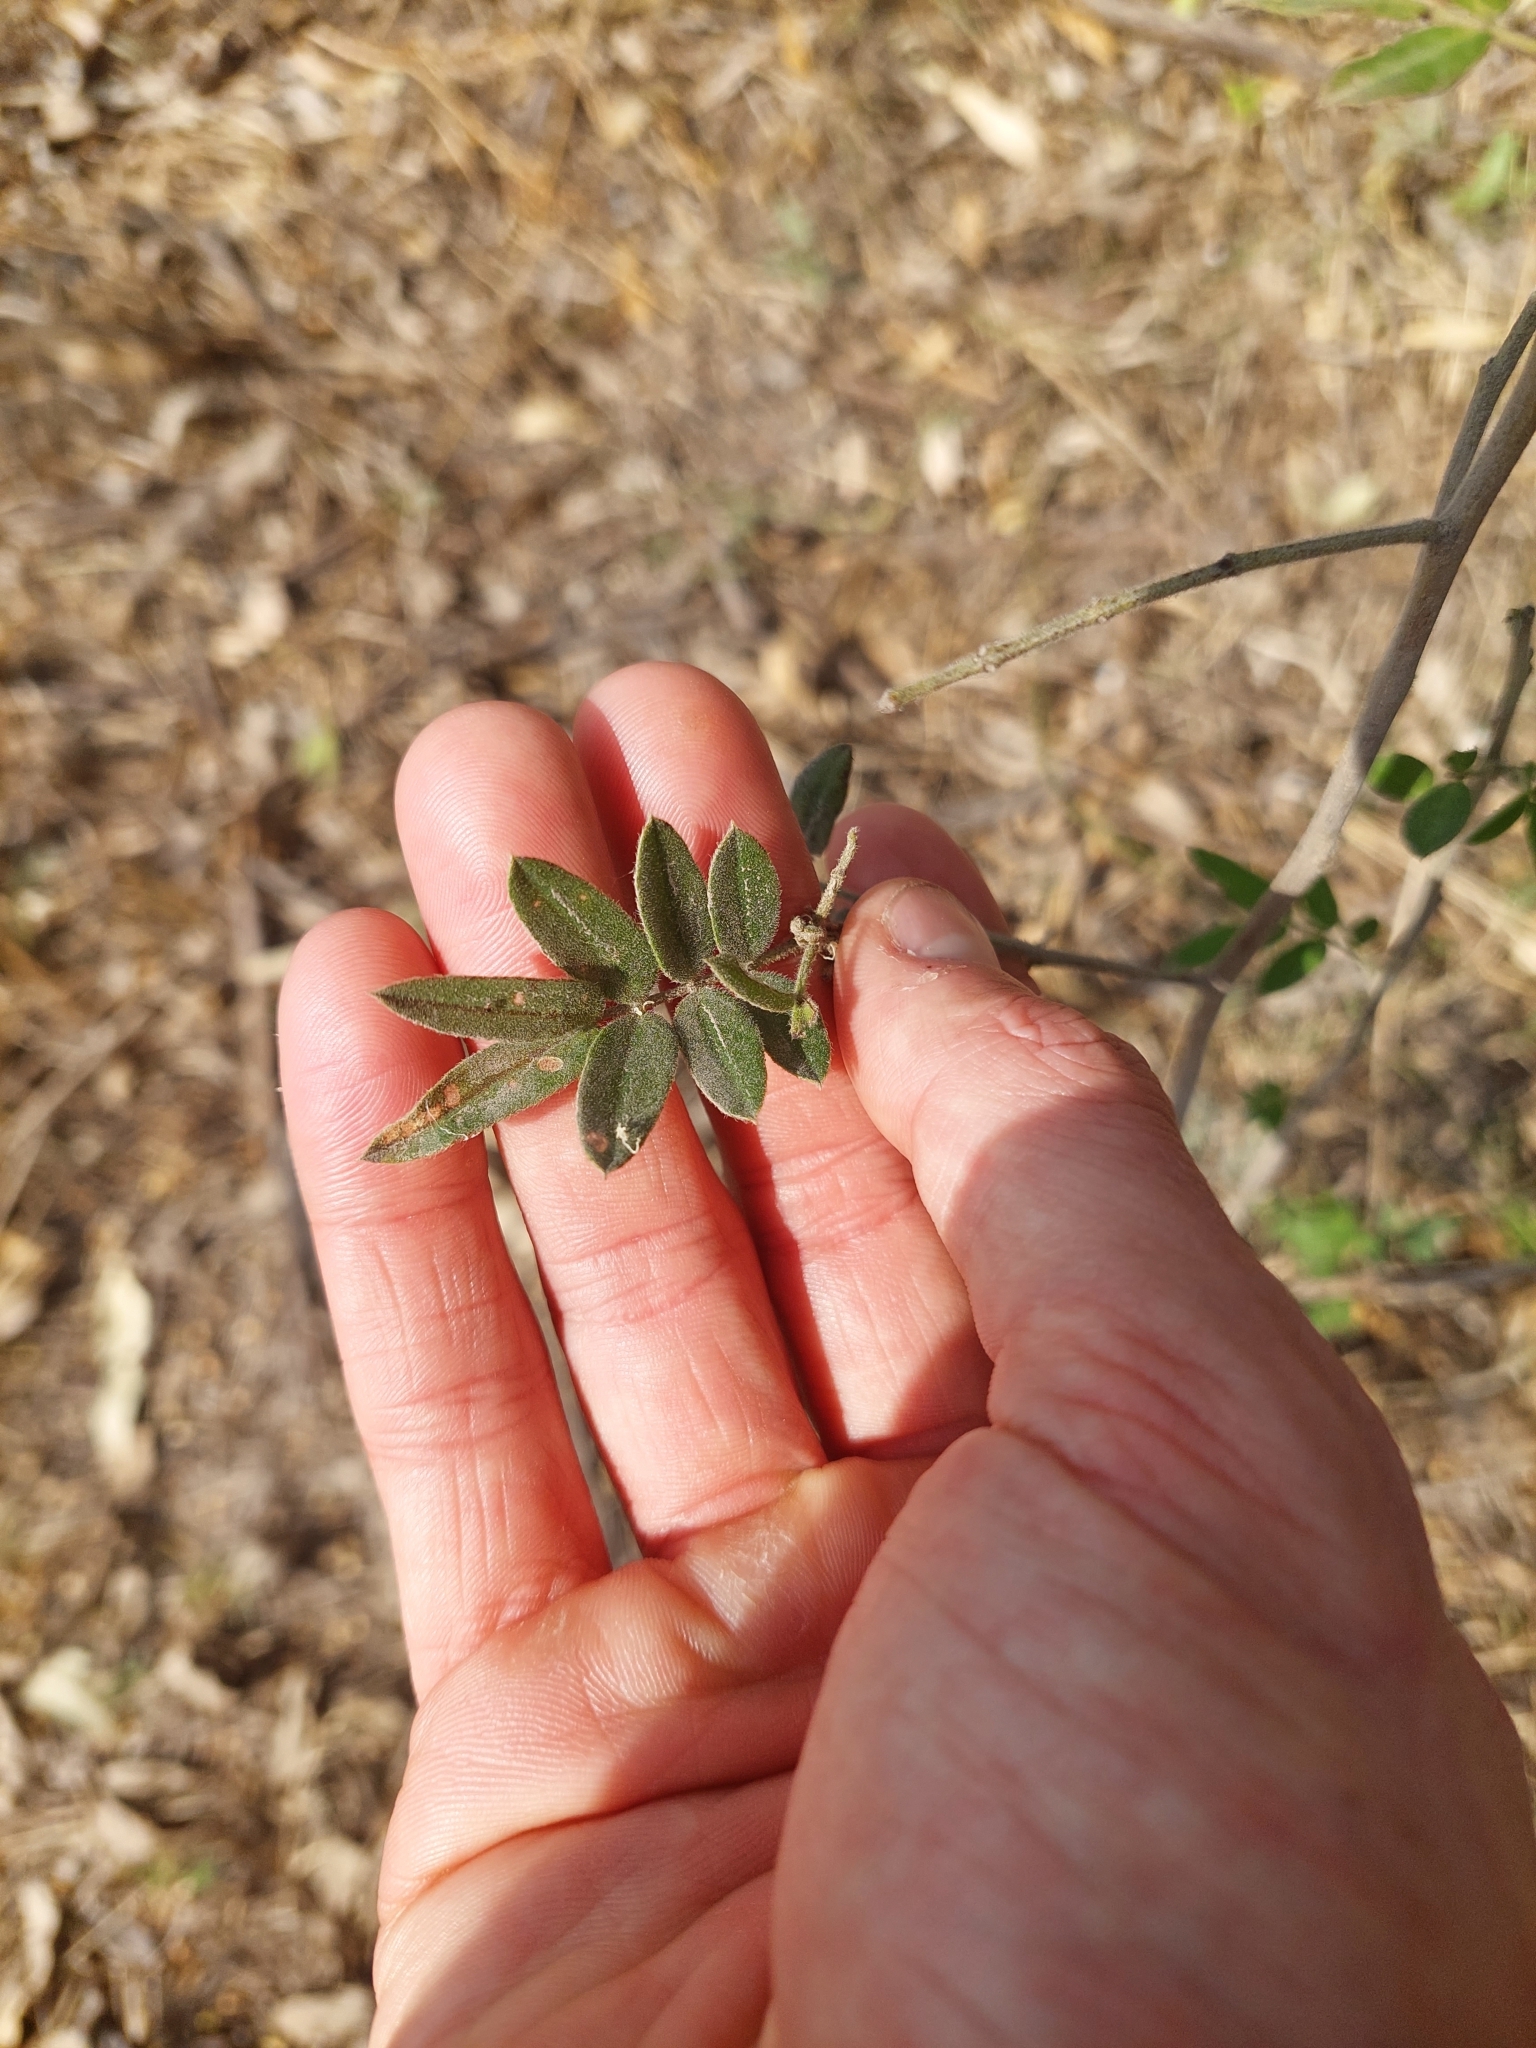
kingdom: Plantae
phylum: Tracheophyta
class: Magnoliopsida
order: Fabales
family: Fabaceae
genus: Senna
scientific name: Senna morongii
